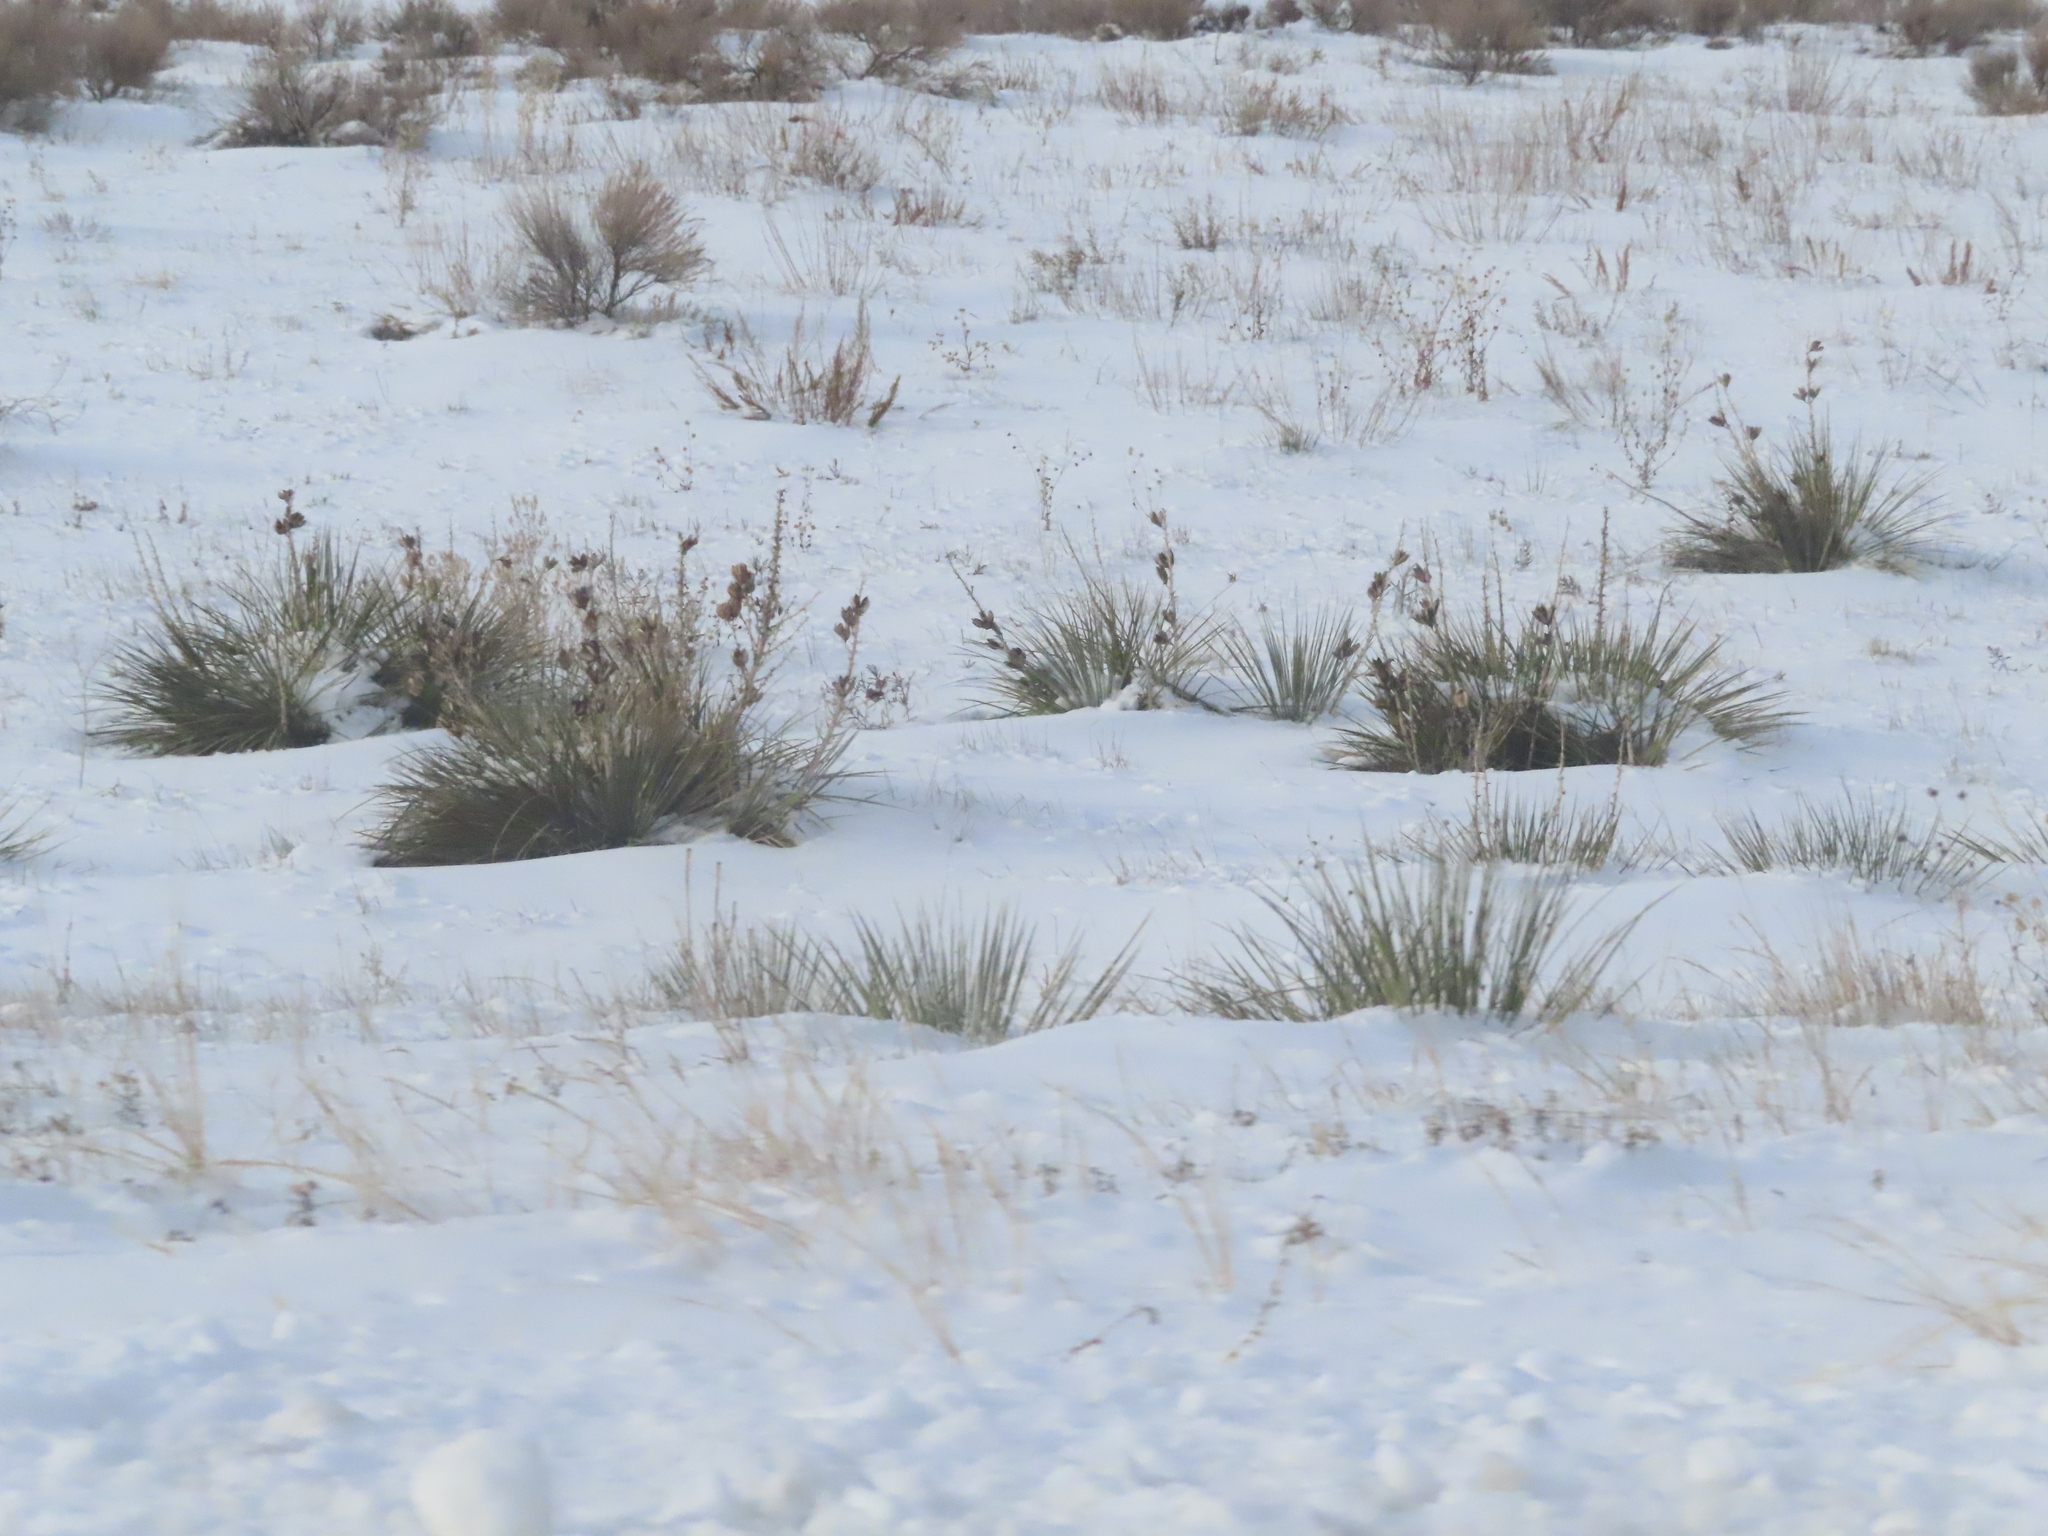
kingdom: Plantae
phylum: Tracheophyta
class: Liliopsida
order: Asparagales
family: Asparagaceae
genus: Yucca
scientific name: Yucca glauca
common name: Great plains yucca
